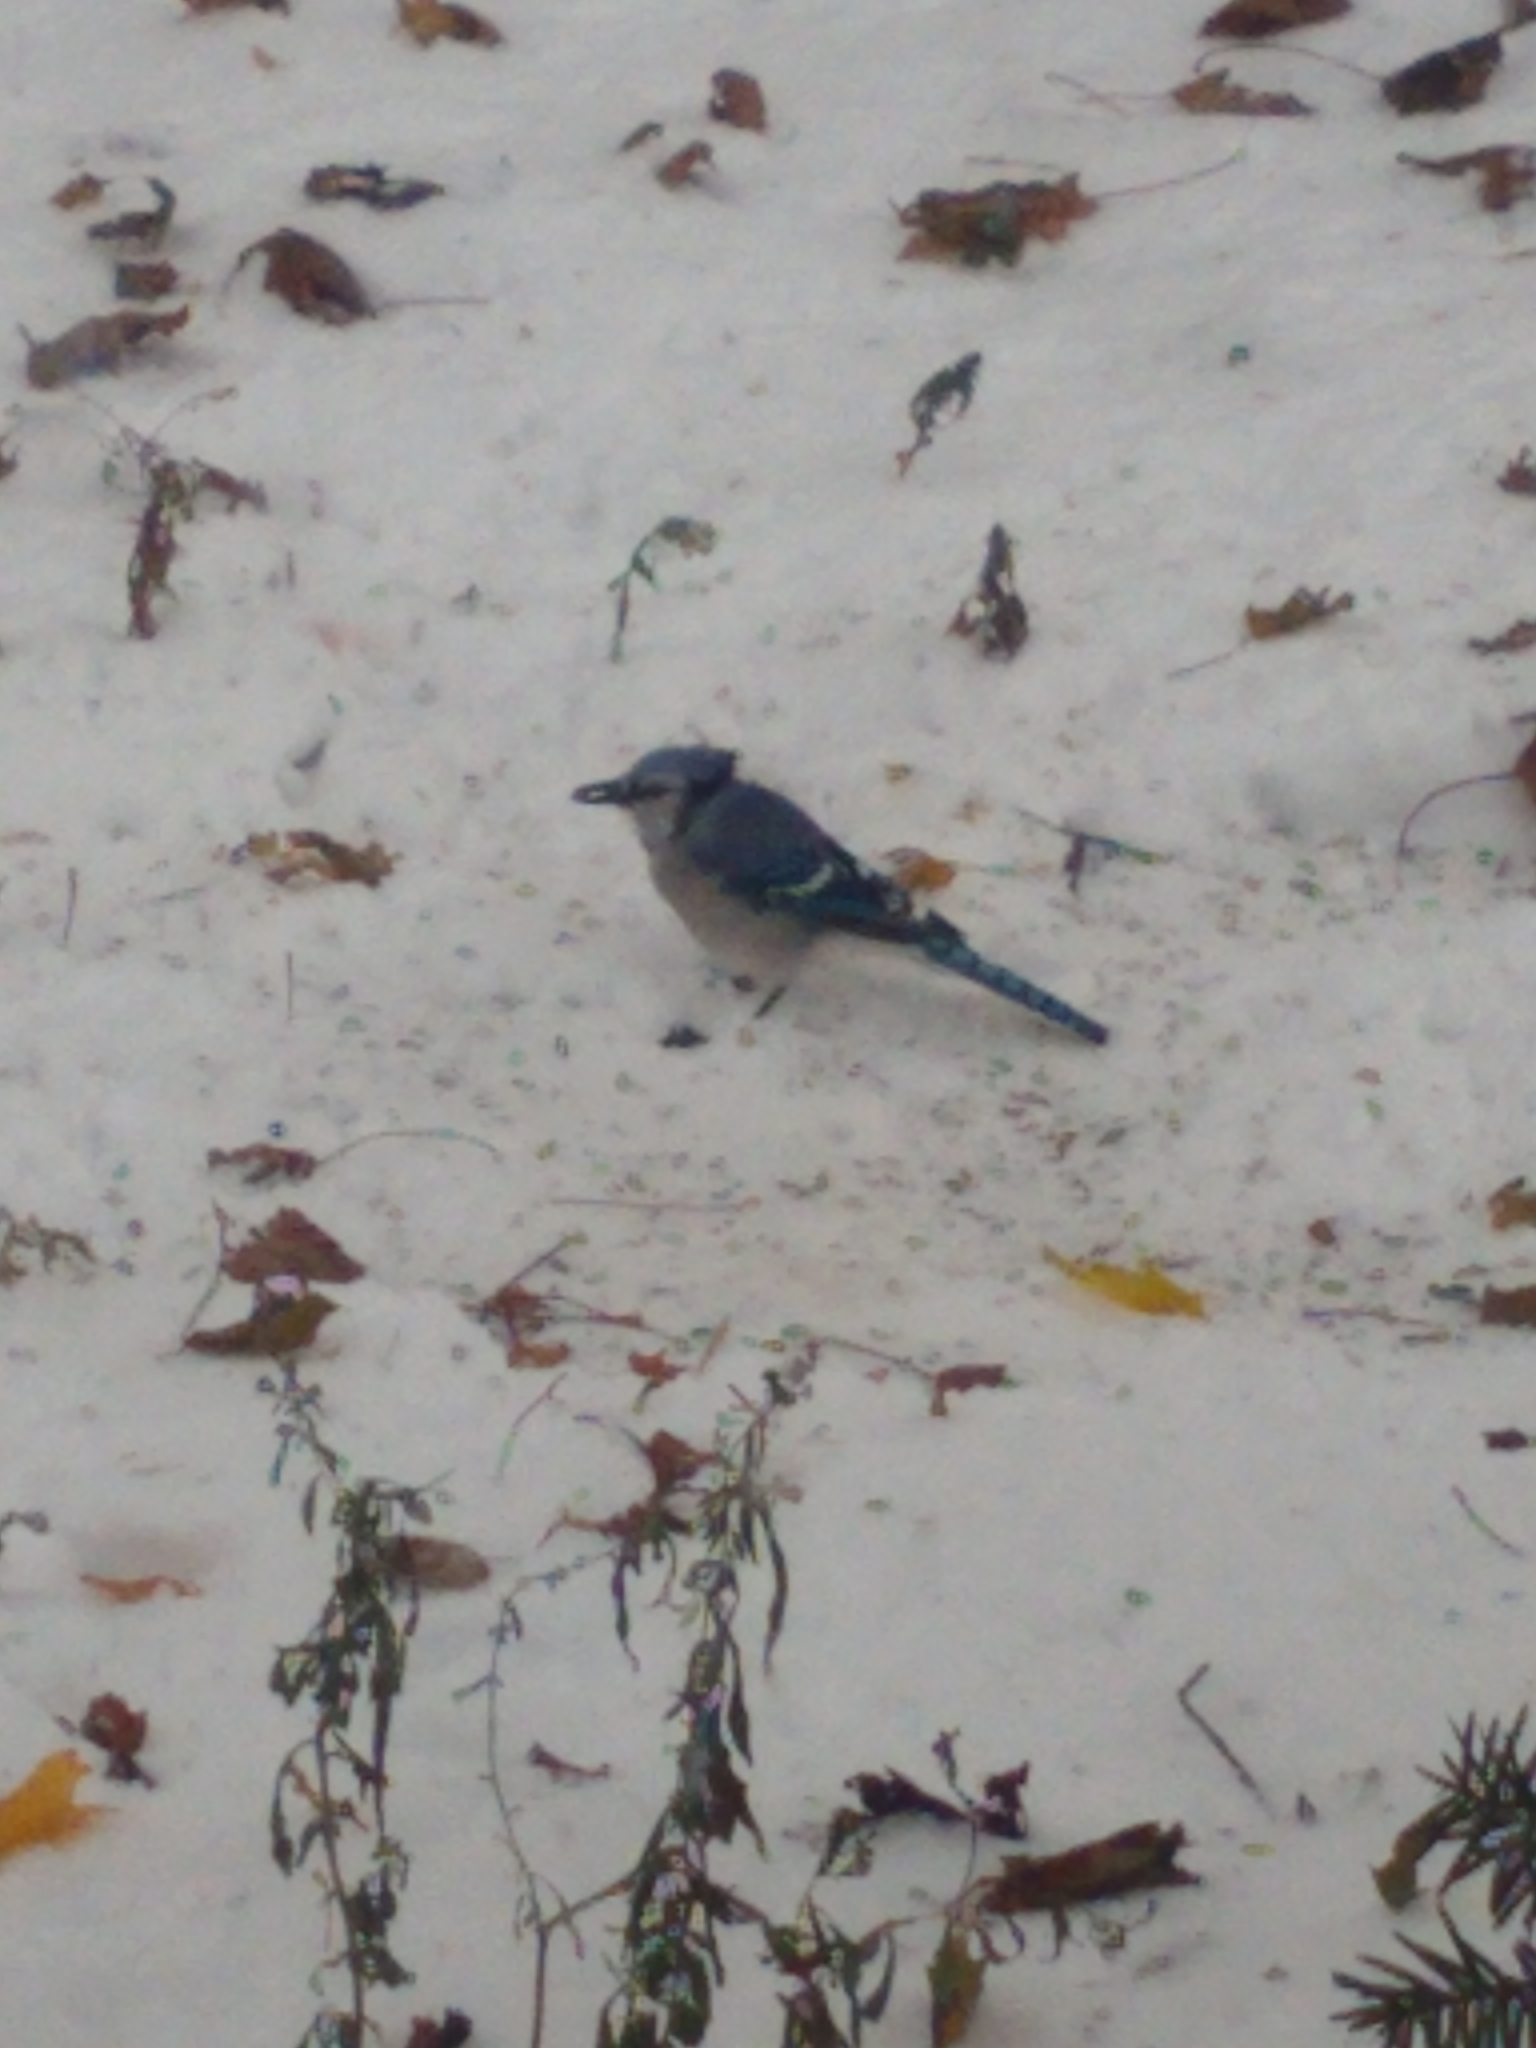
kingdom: Animalia
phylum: Chordata
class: Aves
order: Passeriformes
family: Corvidae
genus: Cyanocitta
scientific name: Cyanocitta cristata
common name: Blue jay
